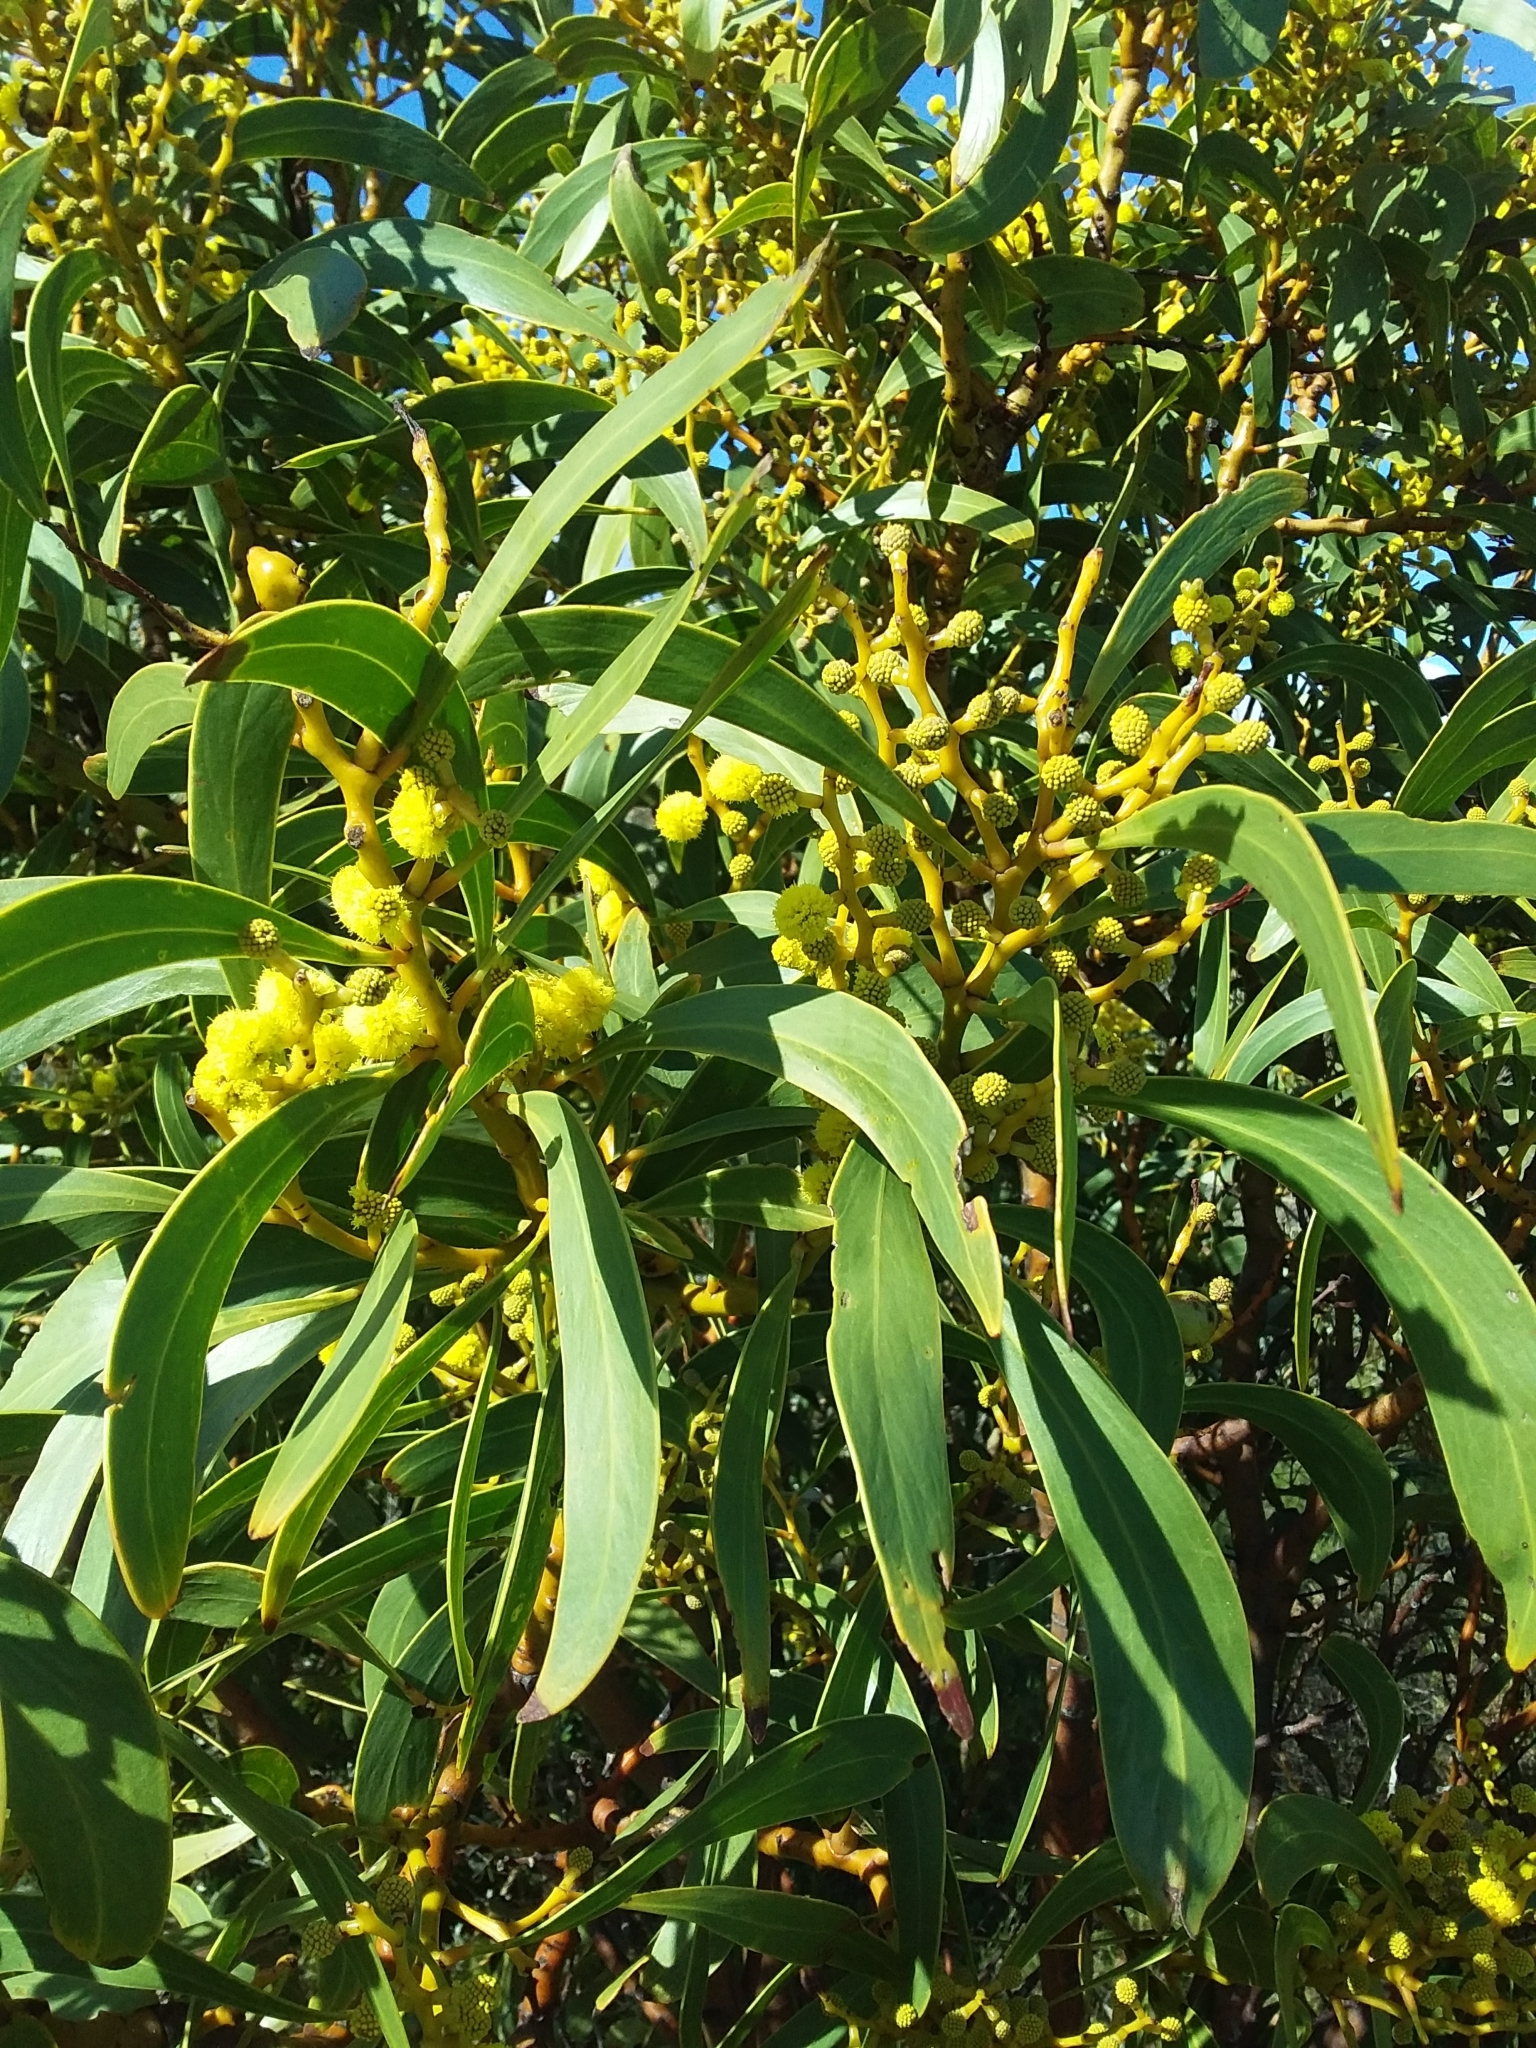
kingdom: Plantae
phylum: Tracheophyta
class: Magnoliopsida
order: Fabales
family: Fabaceae
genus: Acacia
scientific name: Acacia pycnantha
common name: Golden wattle
